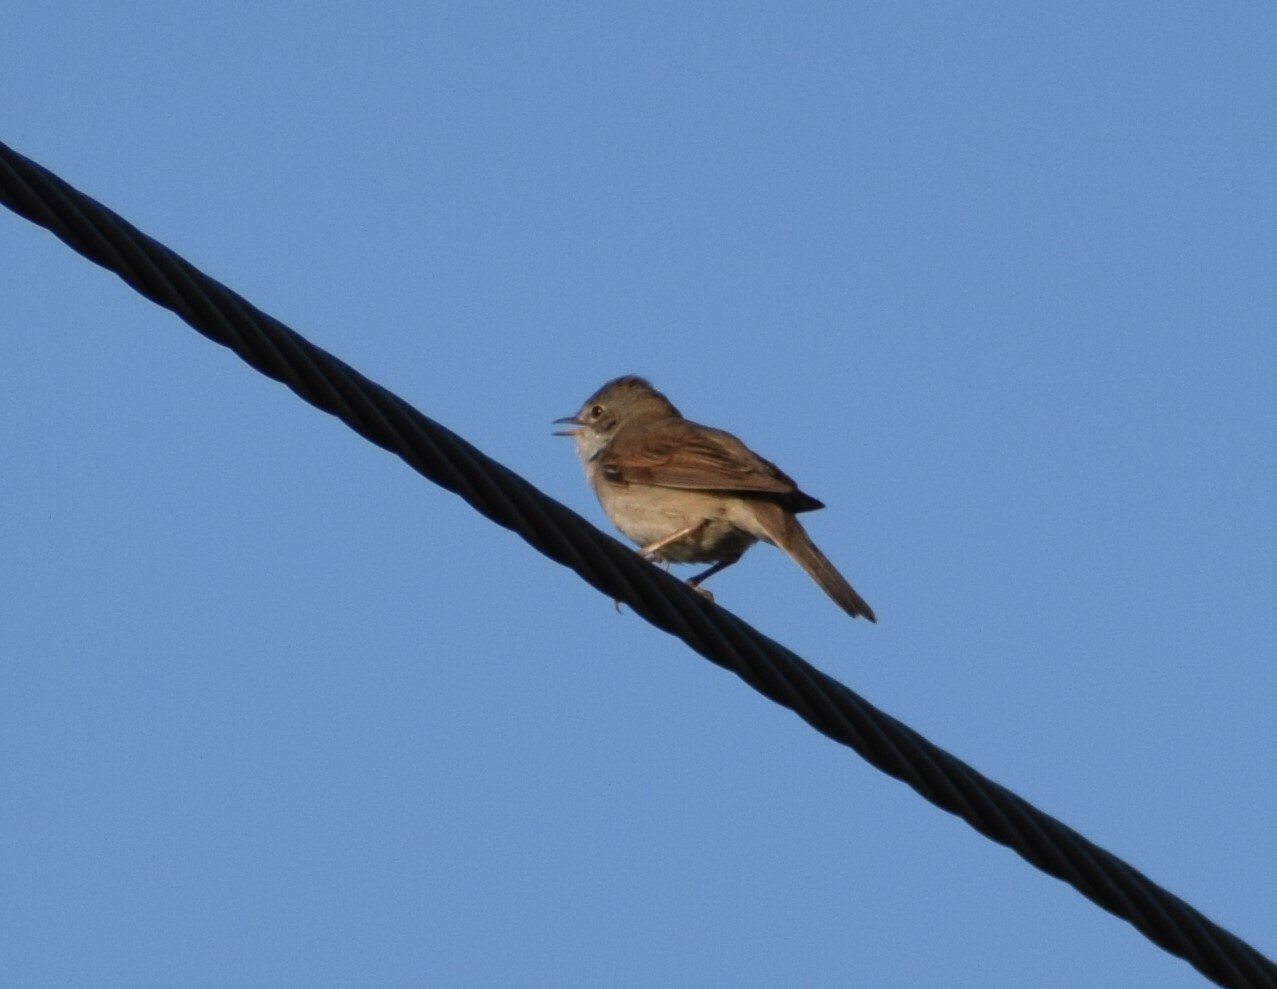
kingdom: Animalia
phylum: Chordata
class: Aves
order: Passeriformes
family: Sylviidae
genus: Sylvia
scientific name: Sylvia communis
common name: Common whitethroat
